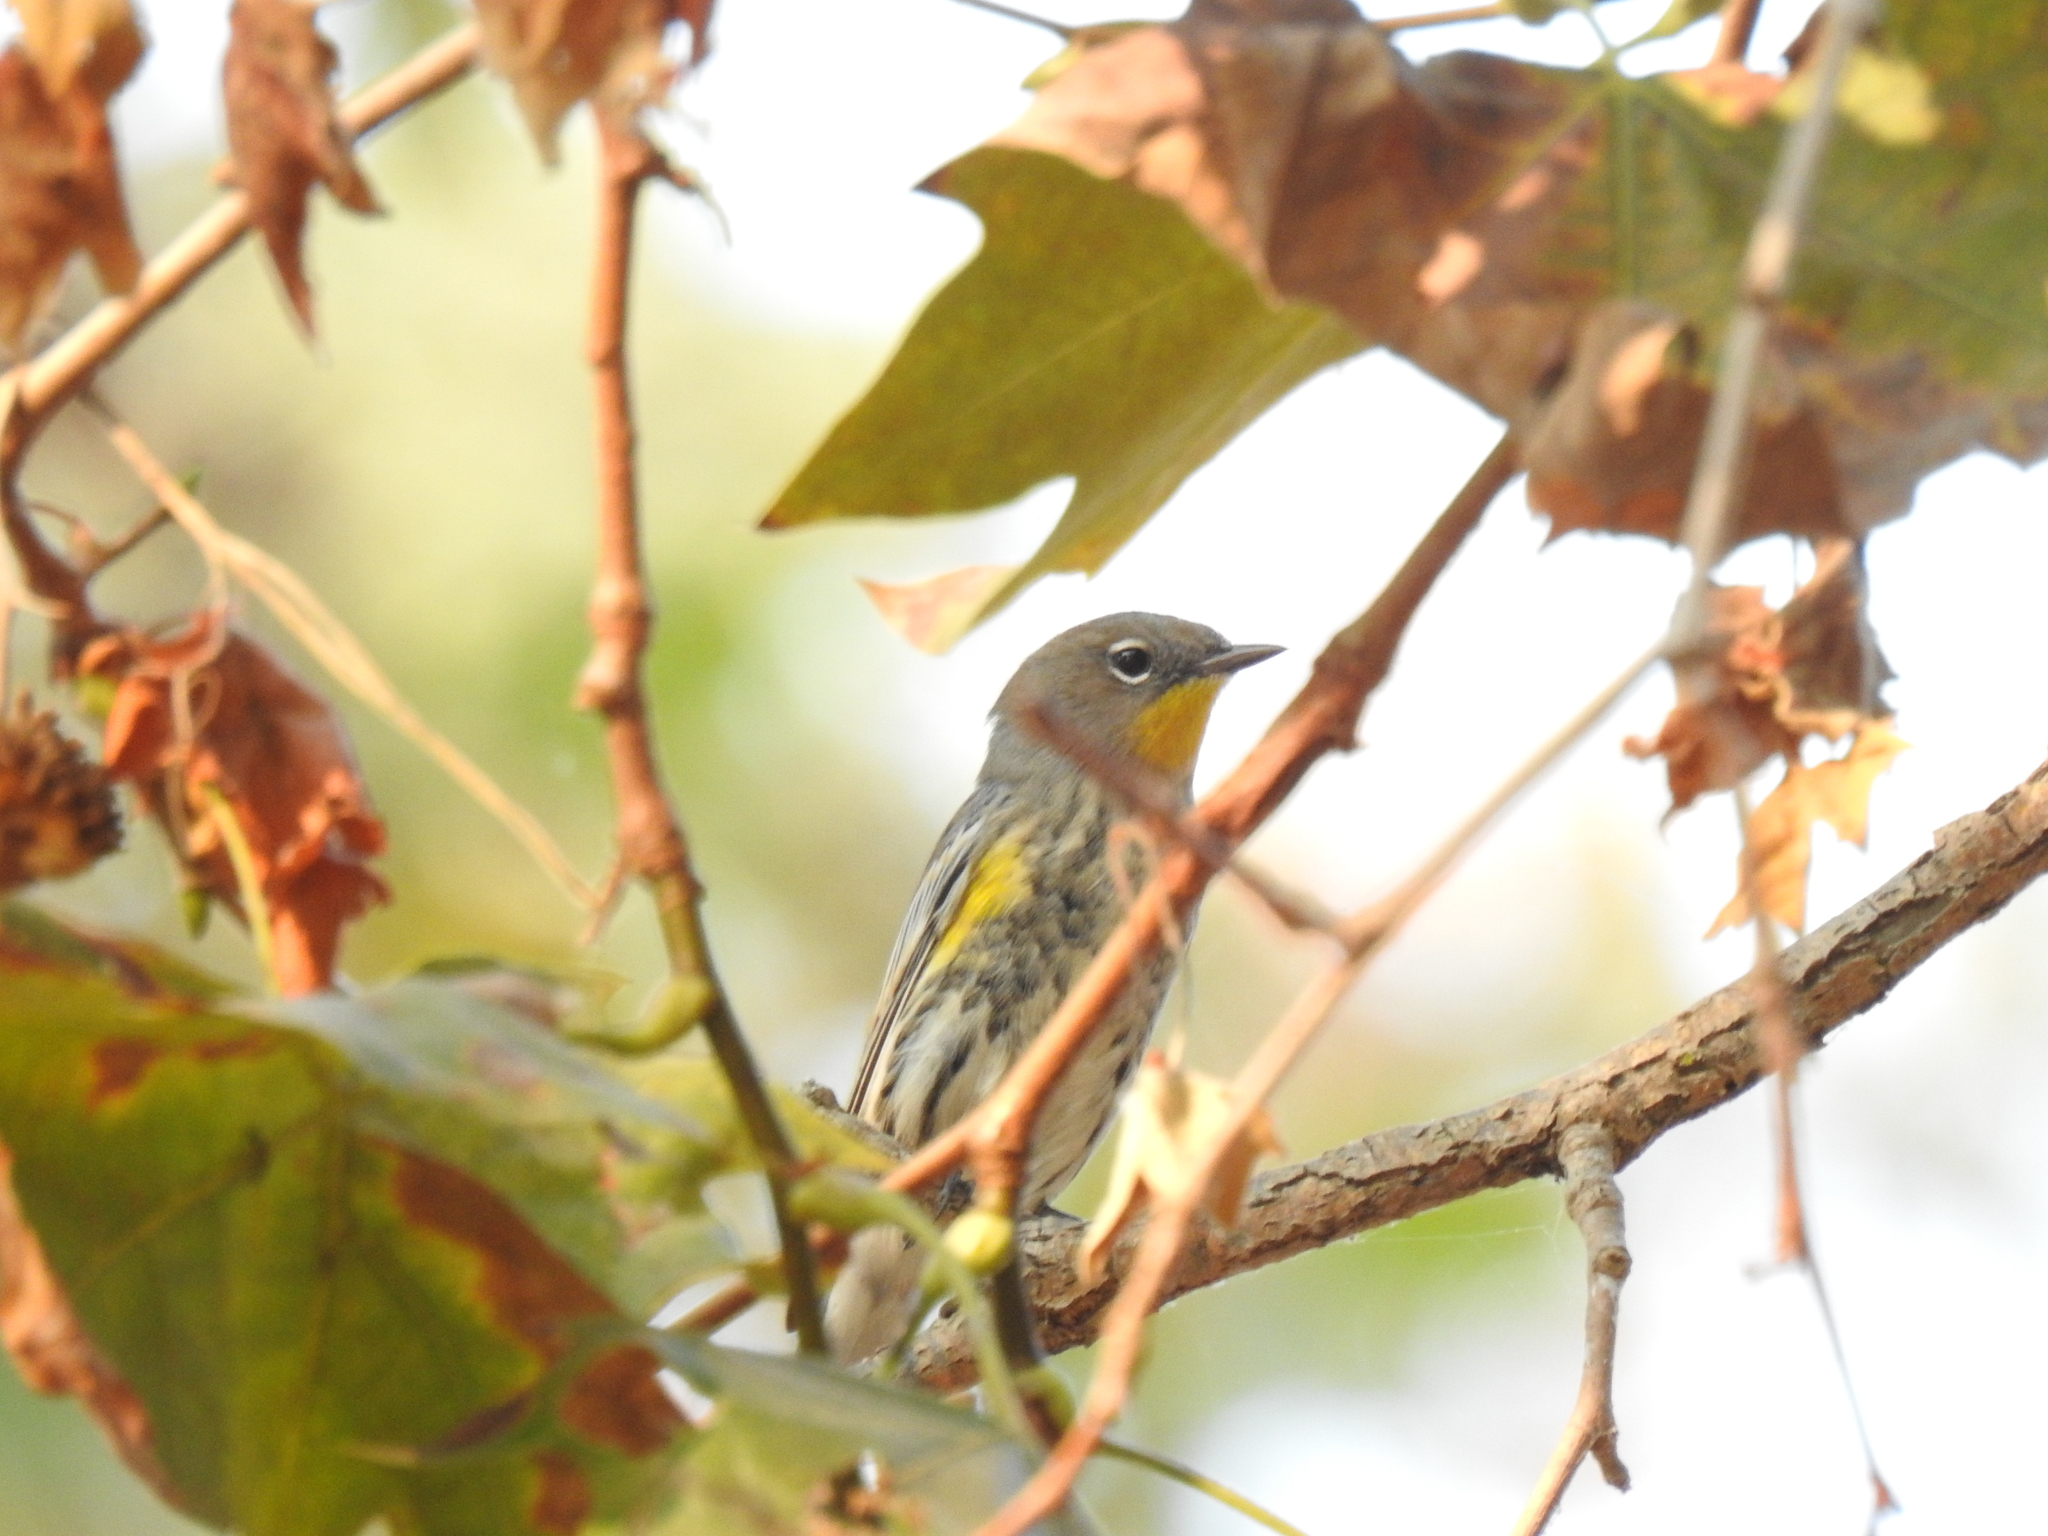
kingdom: Animalia
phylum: Chordata
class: Aves
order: Passeriformes
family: Parulidae
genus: Setophaga
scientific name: Setophaga coronata
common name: Myrtle warbler
